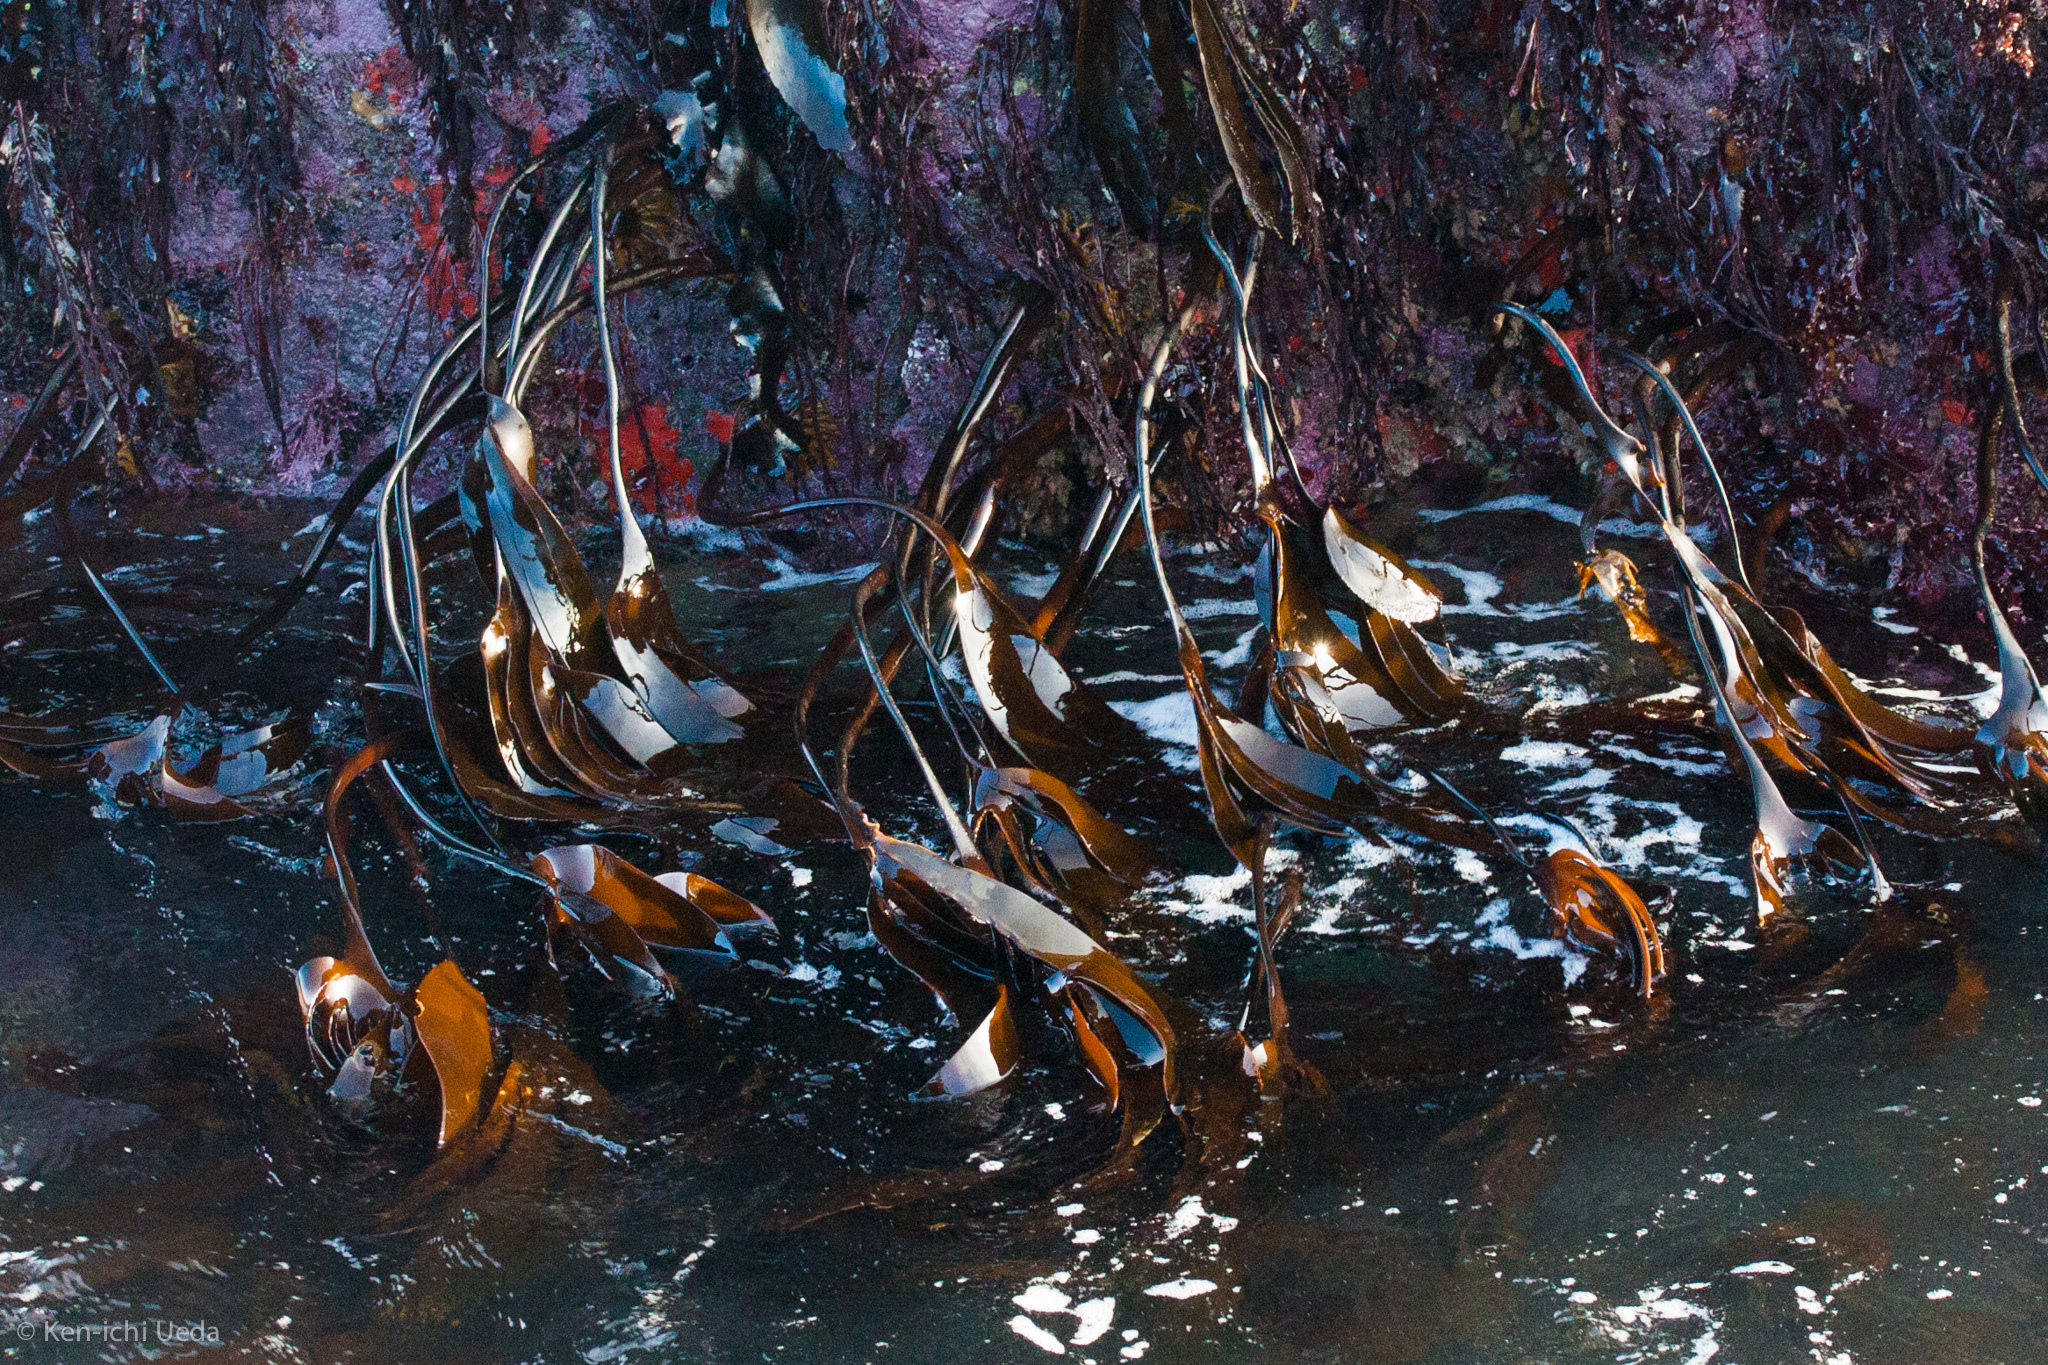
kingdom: Chromista
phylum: Ochrophyta
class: Phaeophyceae
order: Laminariales
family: Laminariaceae
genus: Laminaria
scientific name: Laminaria setchellii
